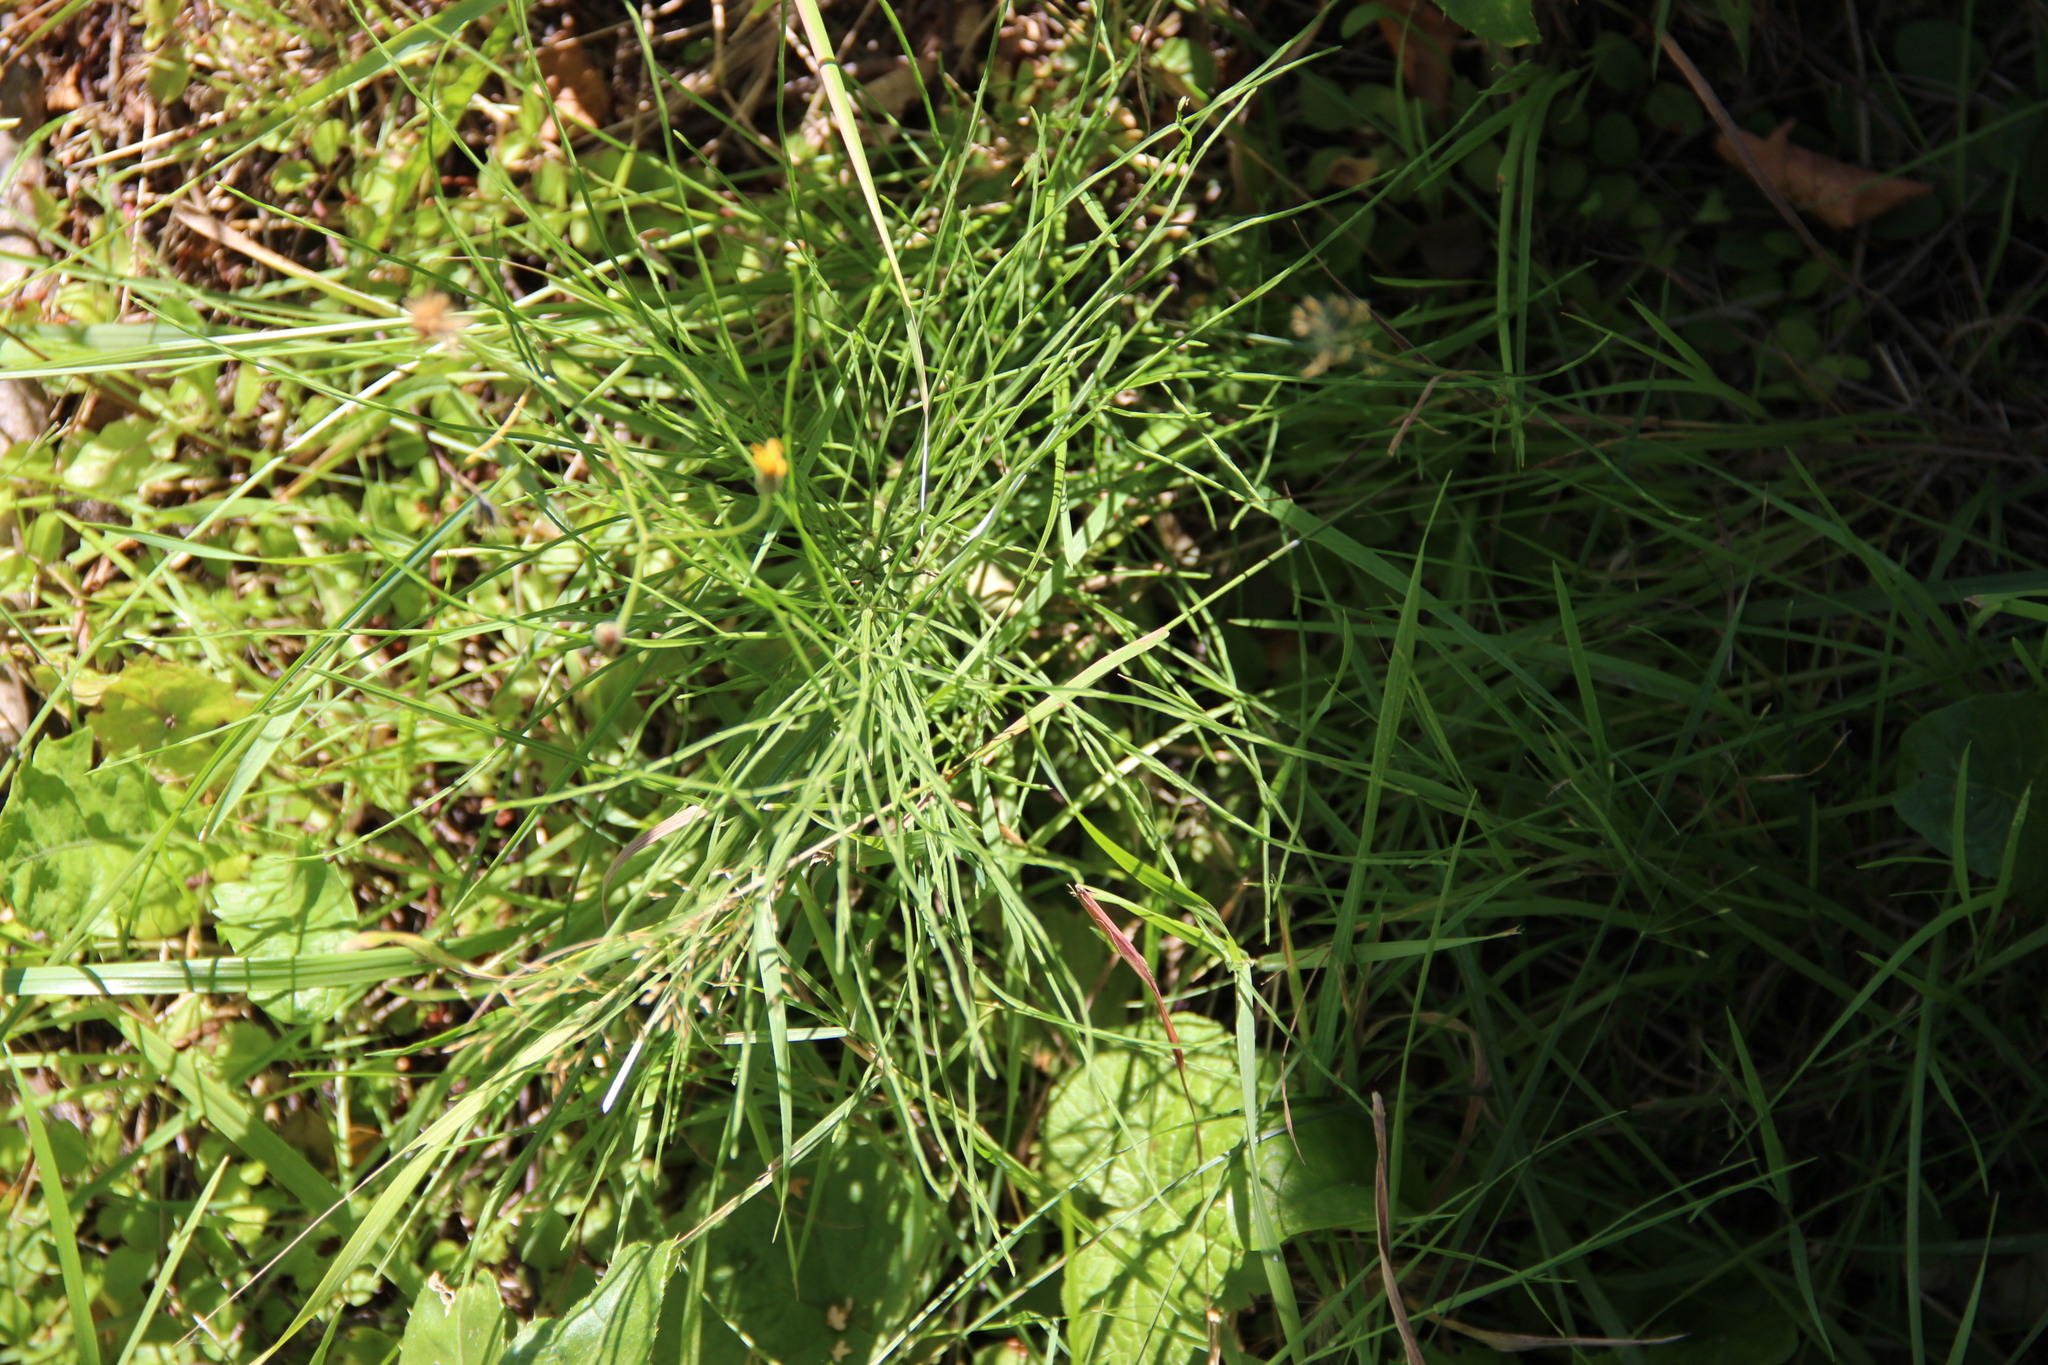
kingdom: Plantae
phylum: Tracheophyta
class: Polypodiopsida
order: Equisetales
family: Equisetaceae
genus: Equisetum
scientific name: Equisetum arvense
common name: Field horsetail
